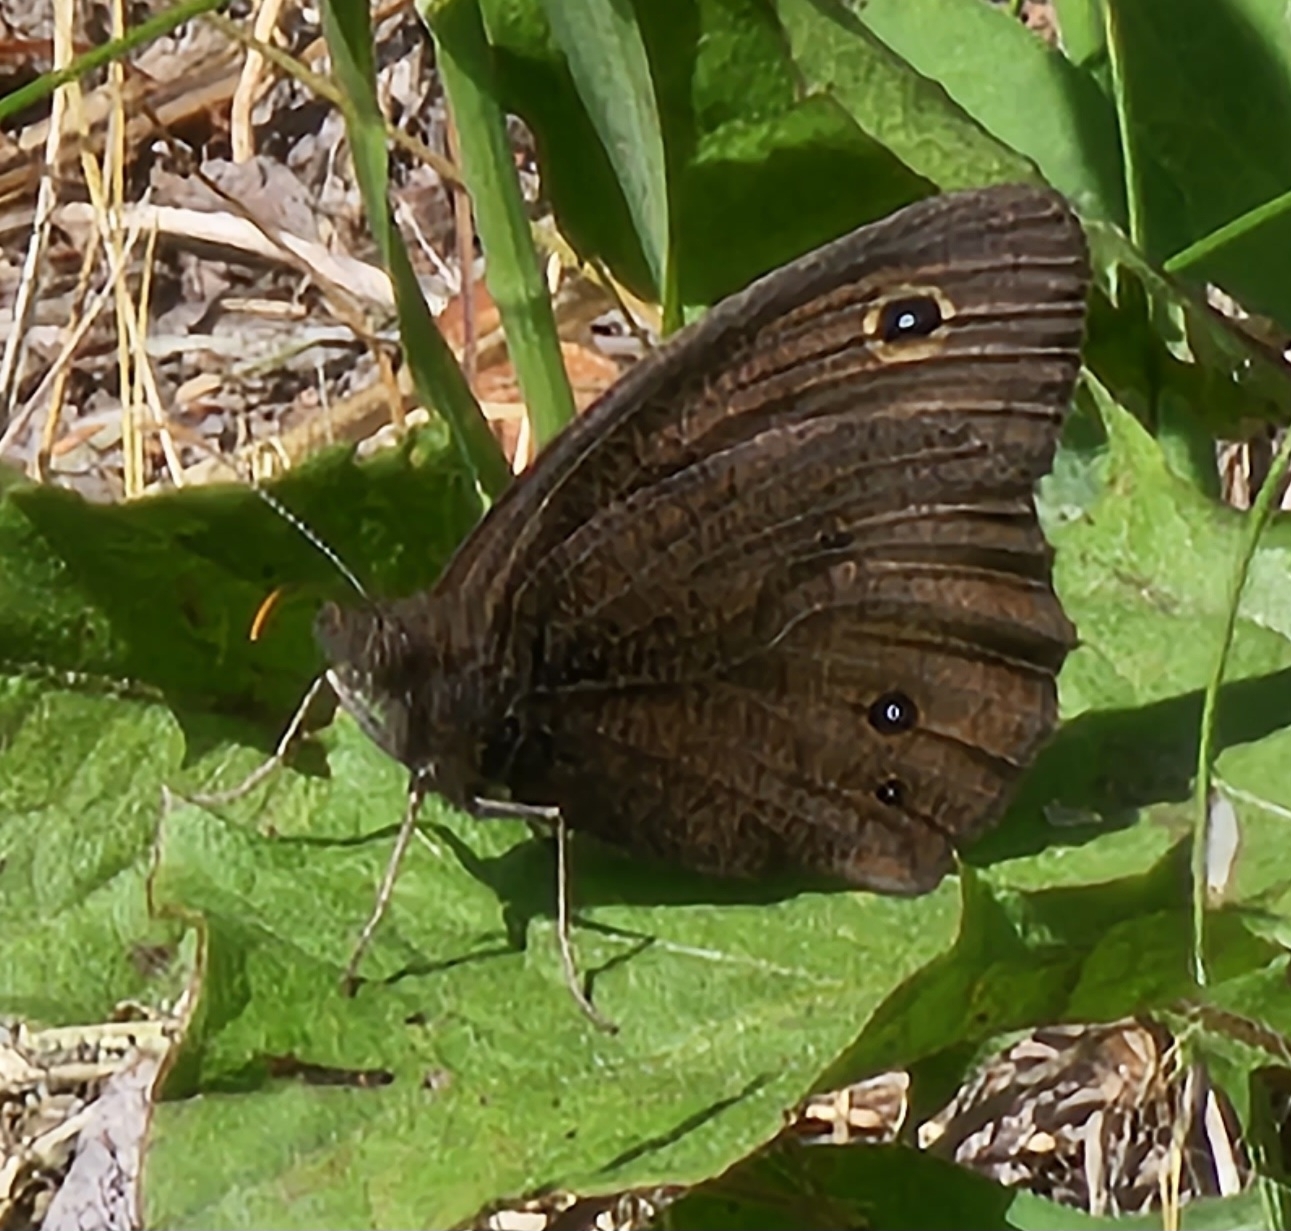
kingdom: Animalia
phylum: Arthropoda
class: Insecta
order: Lepidoptera
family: Nymphalidae
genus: Cercyonis
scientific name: Cercyonis pegala
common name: Common wood-nymph
